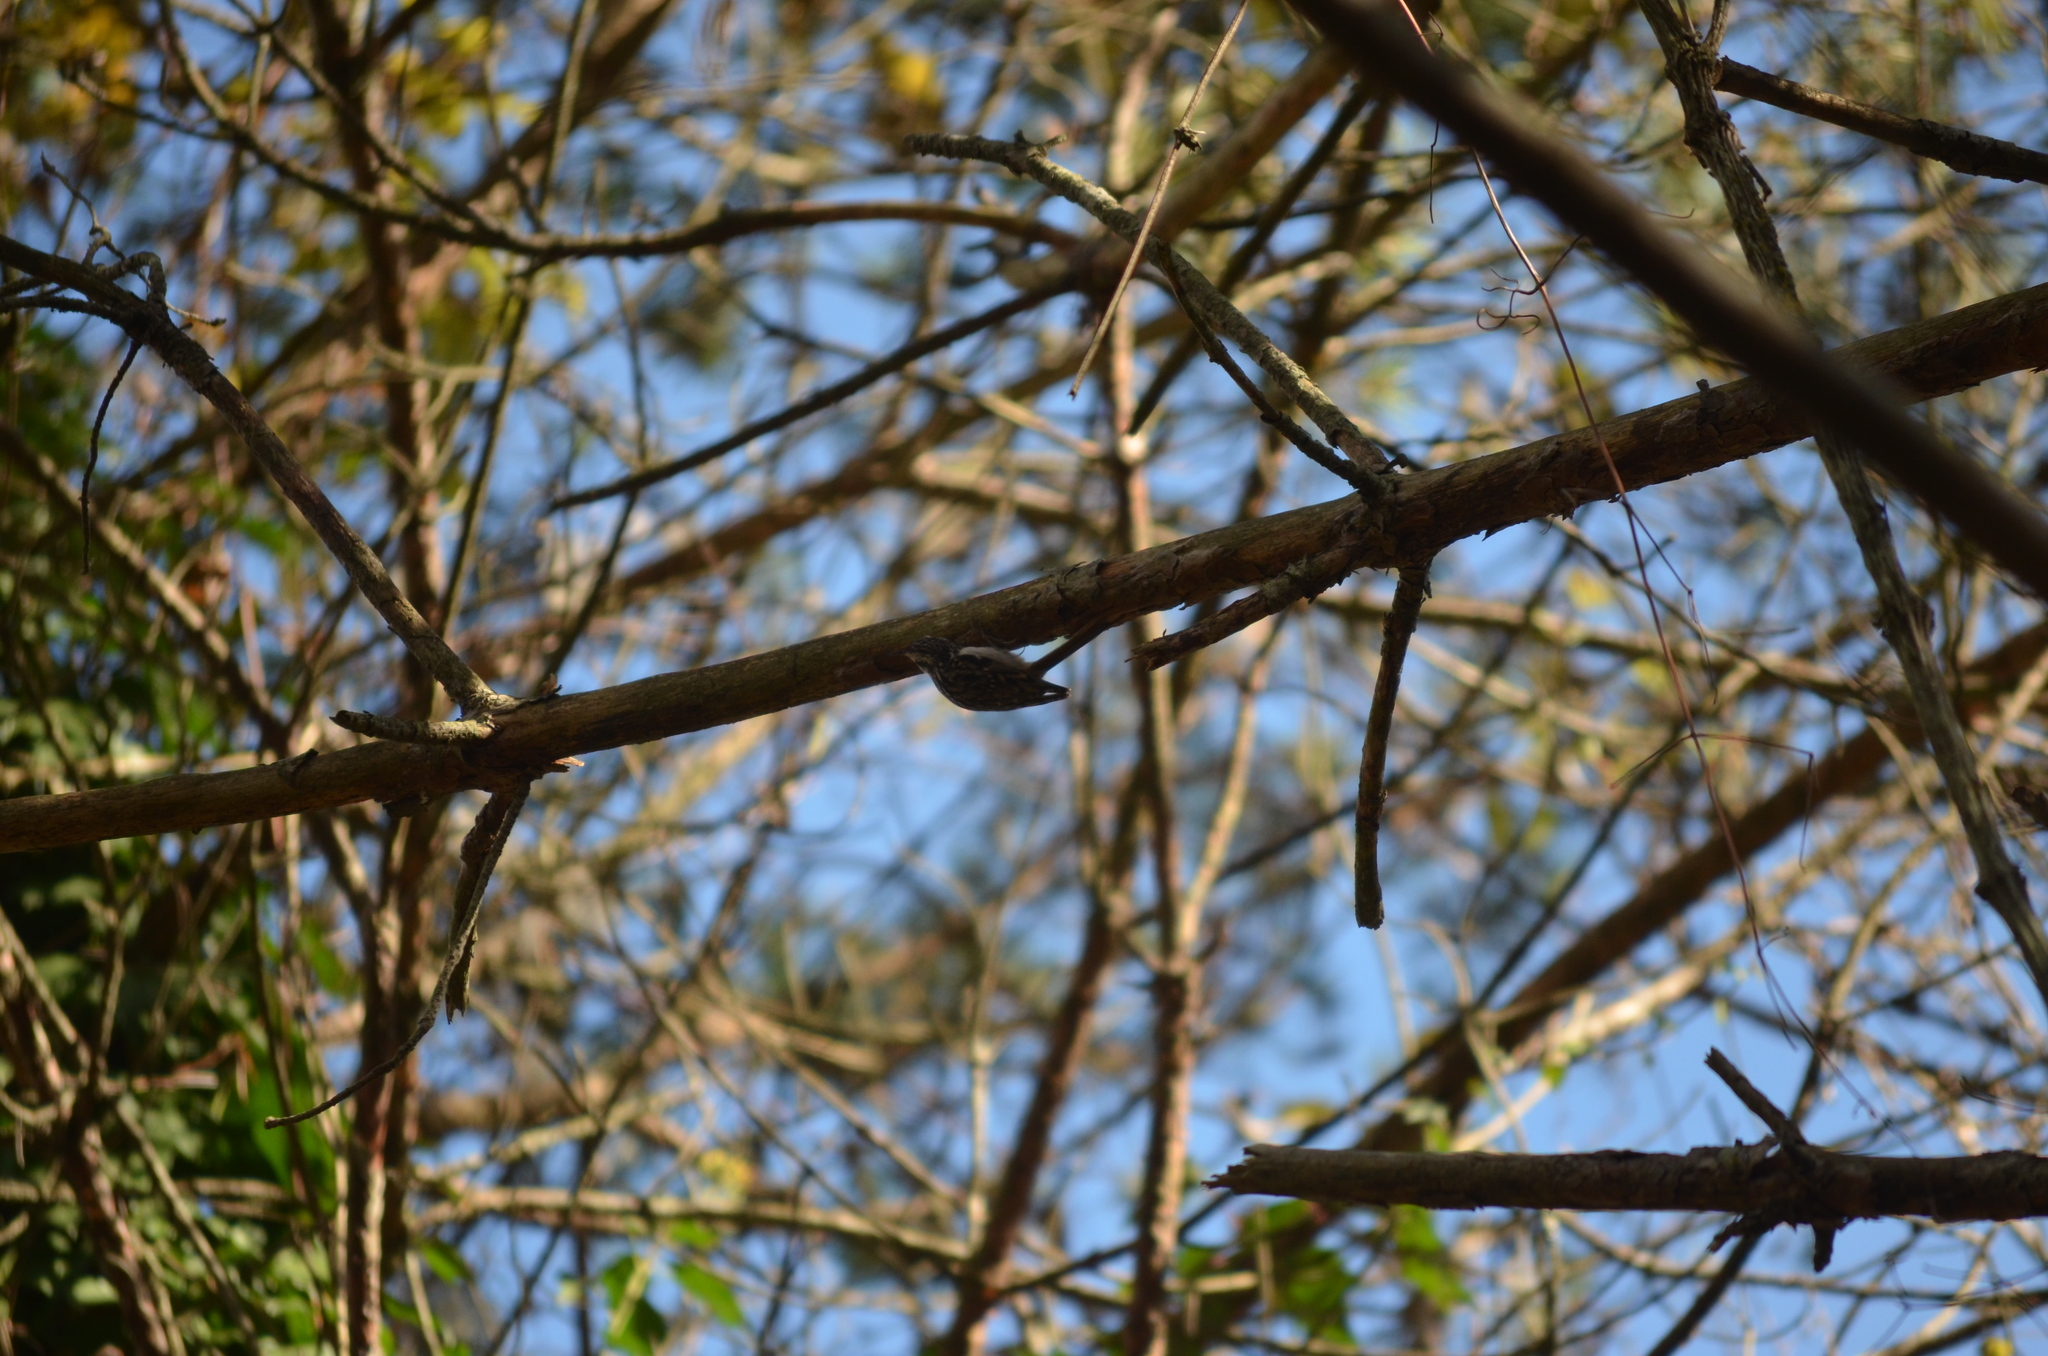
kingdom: Animalia
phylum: Chordata
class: Aves
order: Passeriformes
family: Certhiidae
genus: Certhia
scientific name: Certhia brachydactyla
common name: Short-toed treecreeper
